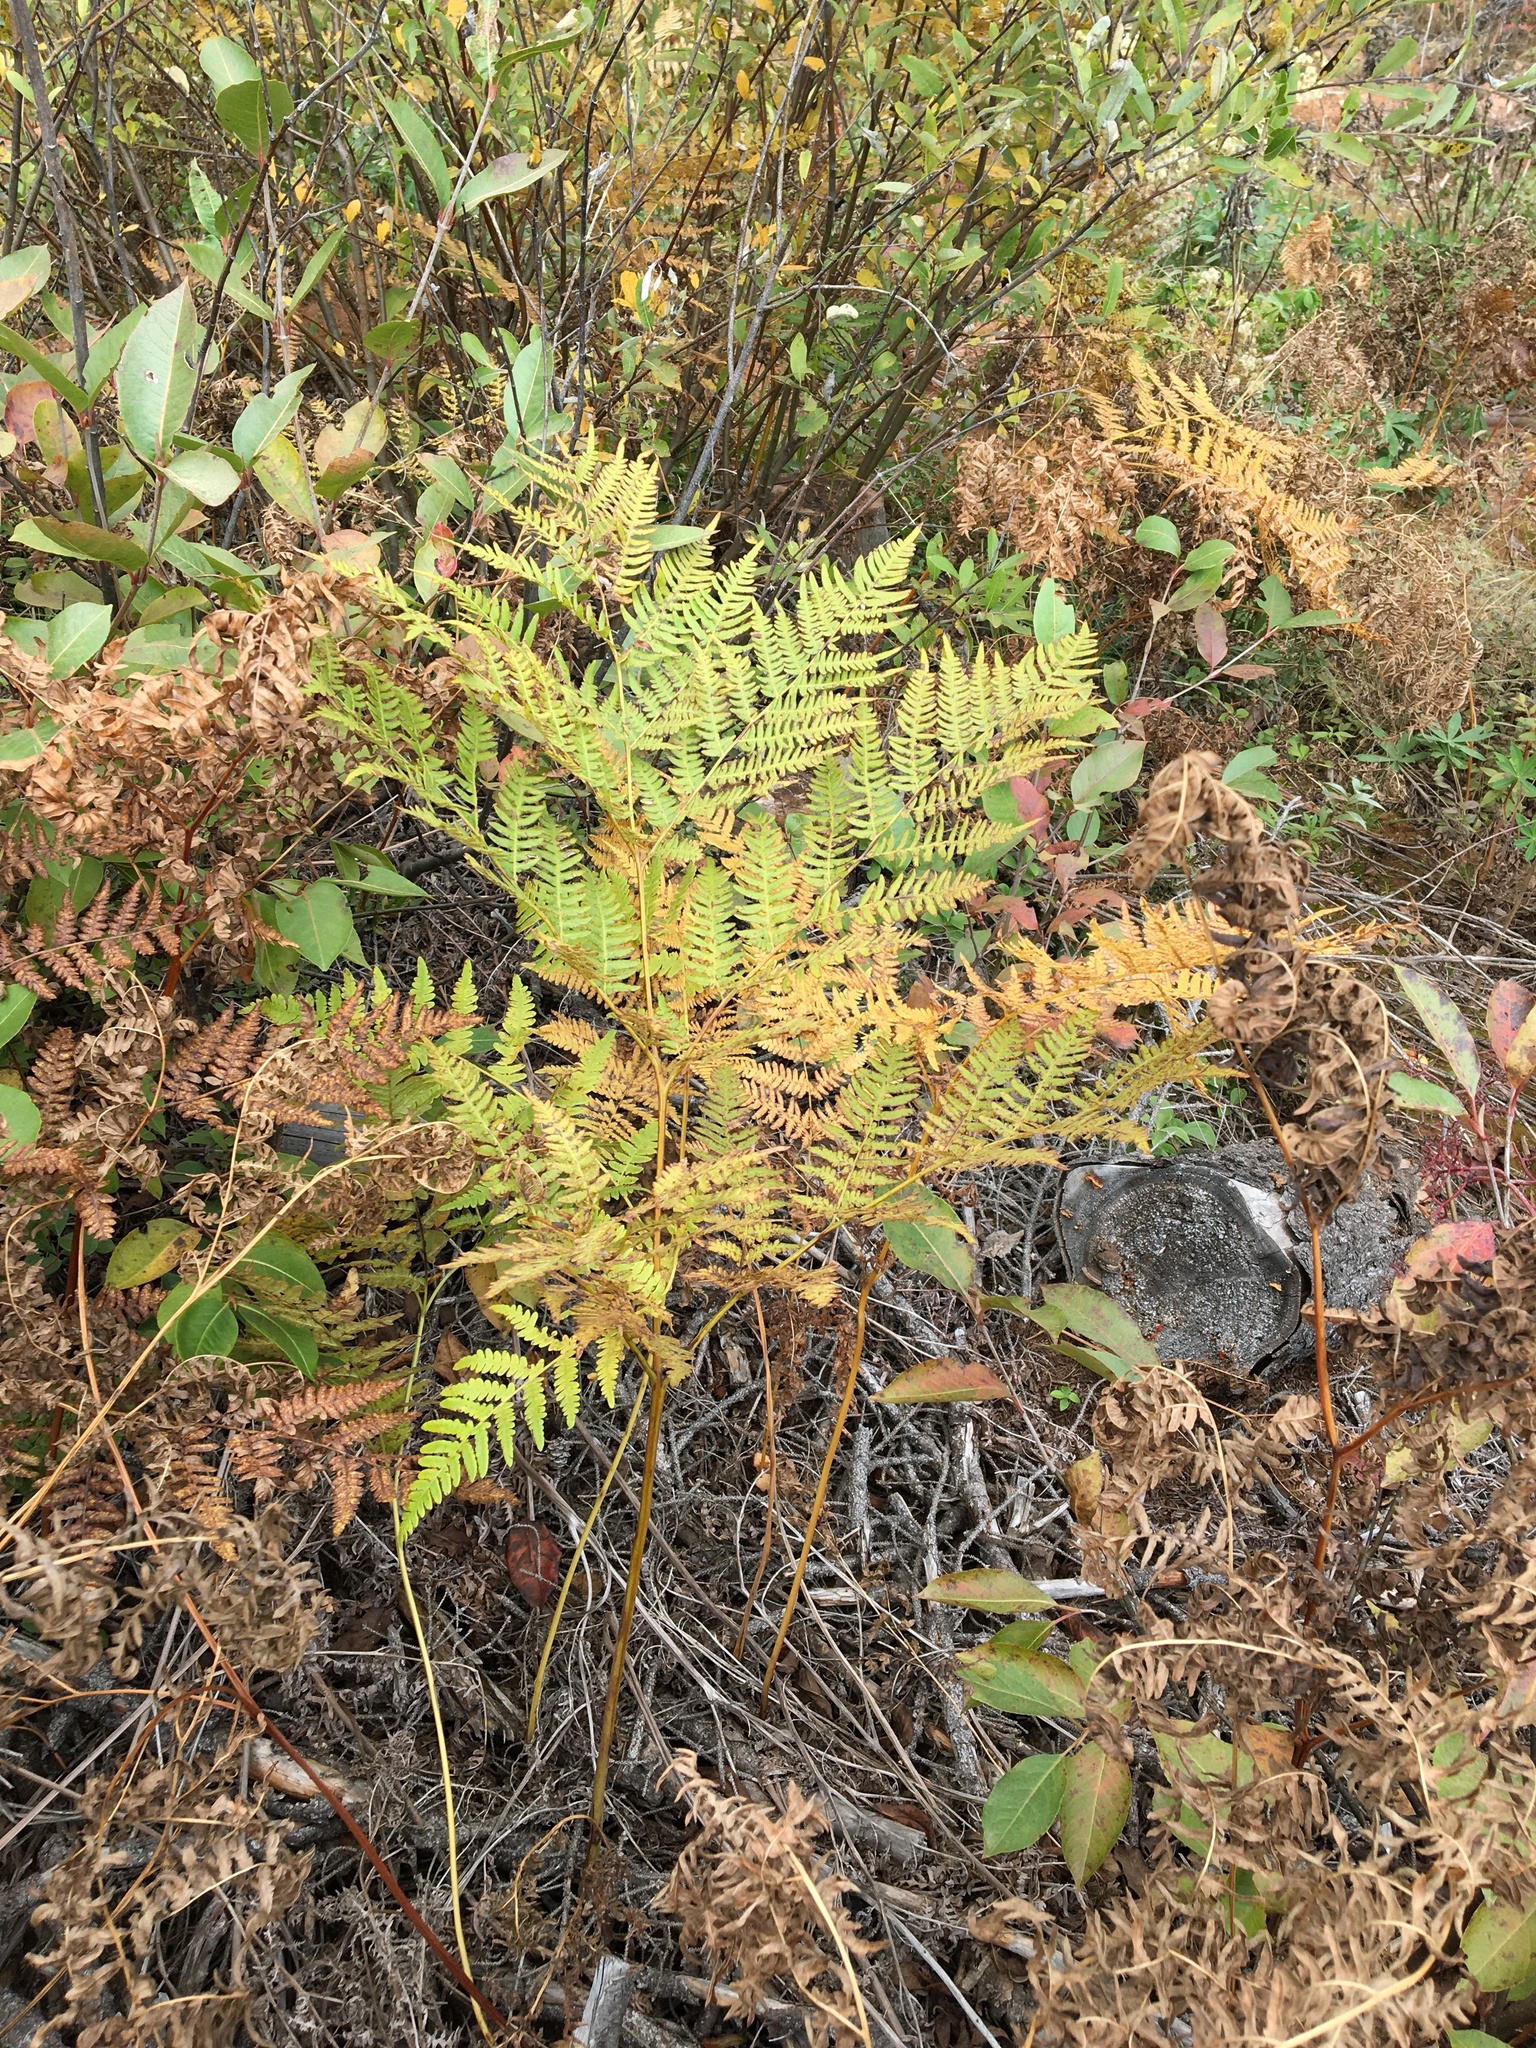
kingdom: Plantae
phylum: Tracheophyta
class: Polypodiopsida
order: Polypodiales
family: Dennstaedtiaceae
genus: Pteridium
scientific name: Pteridium aquilinum
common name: Bracken
